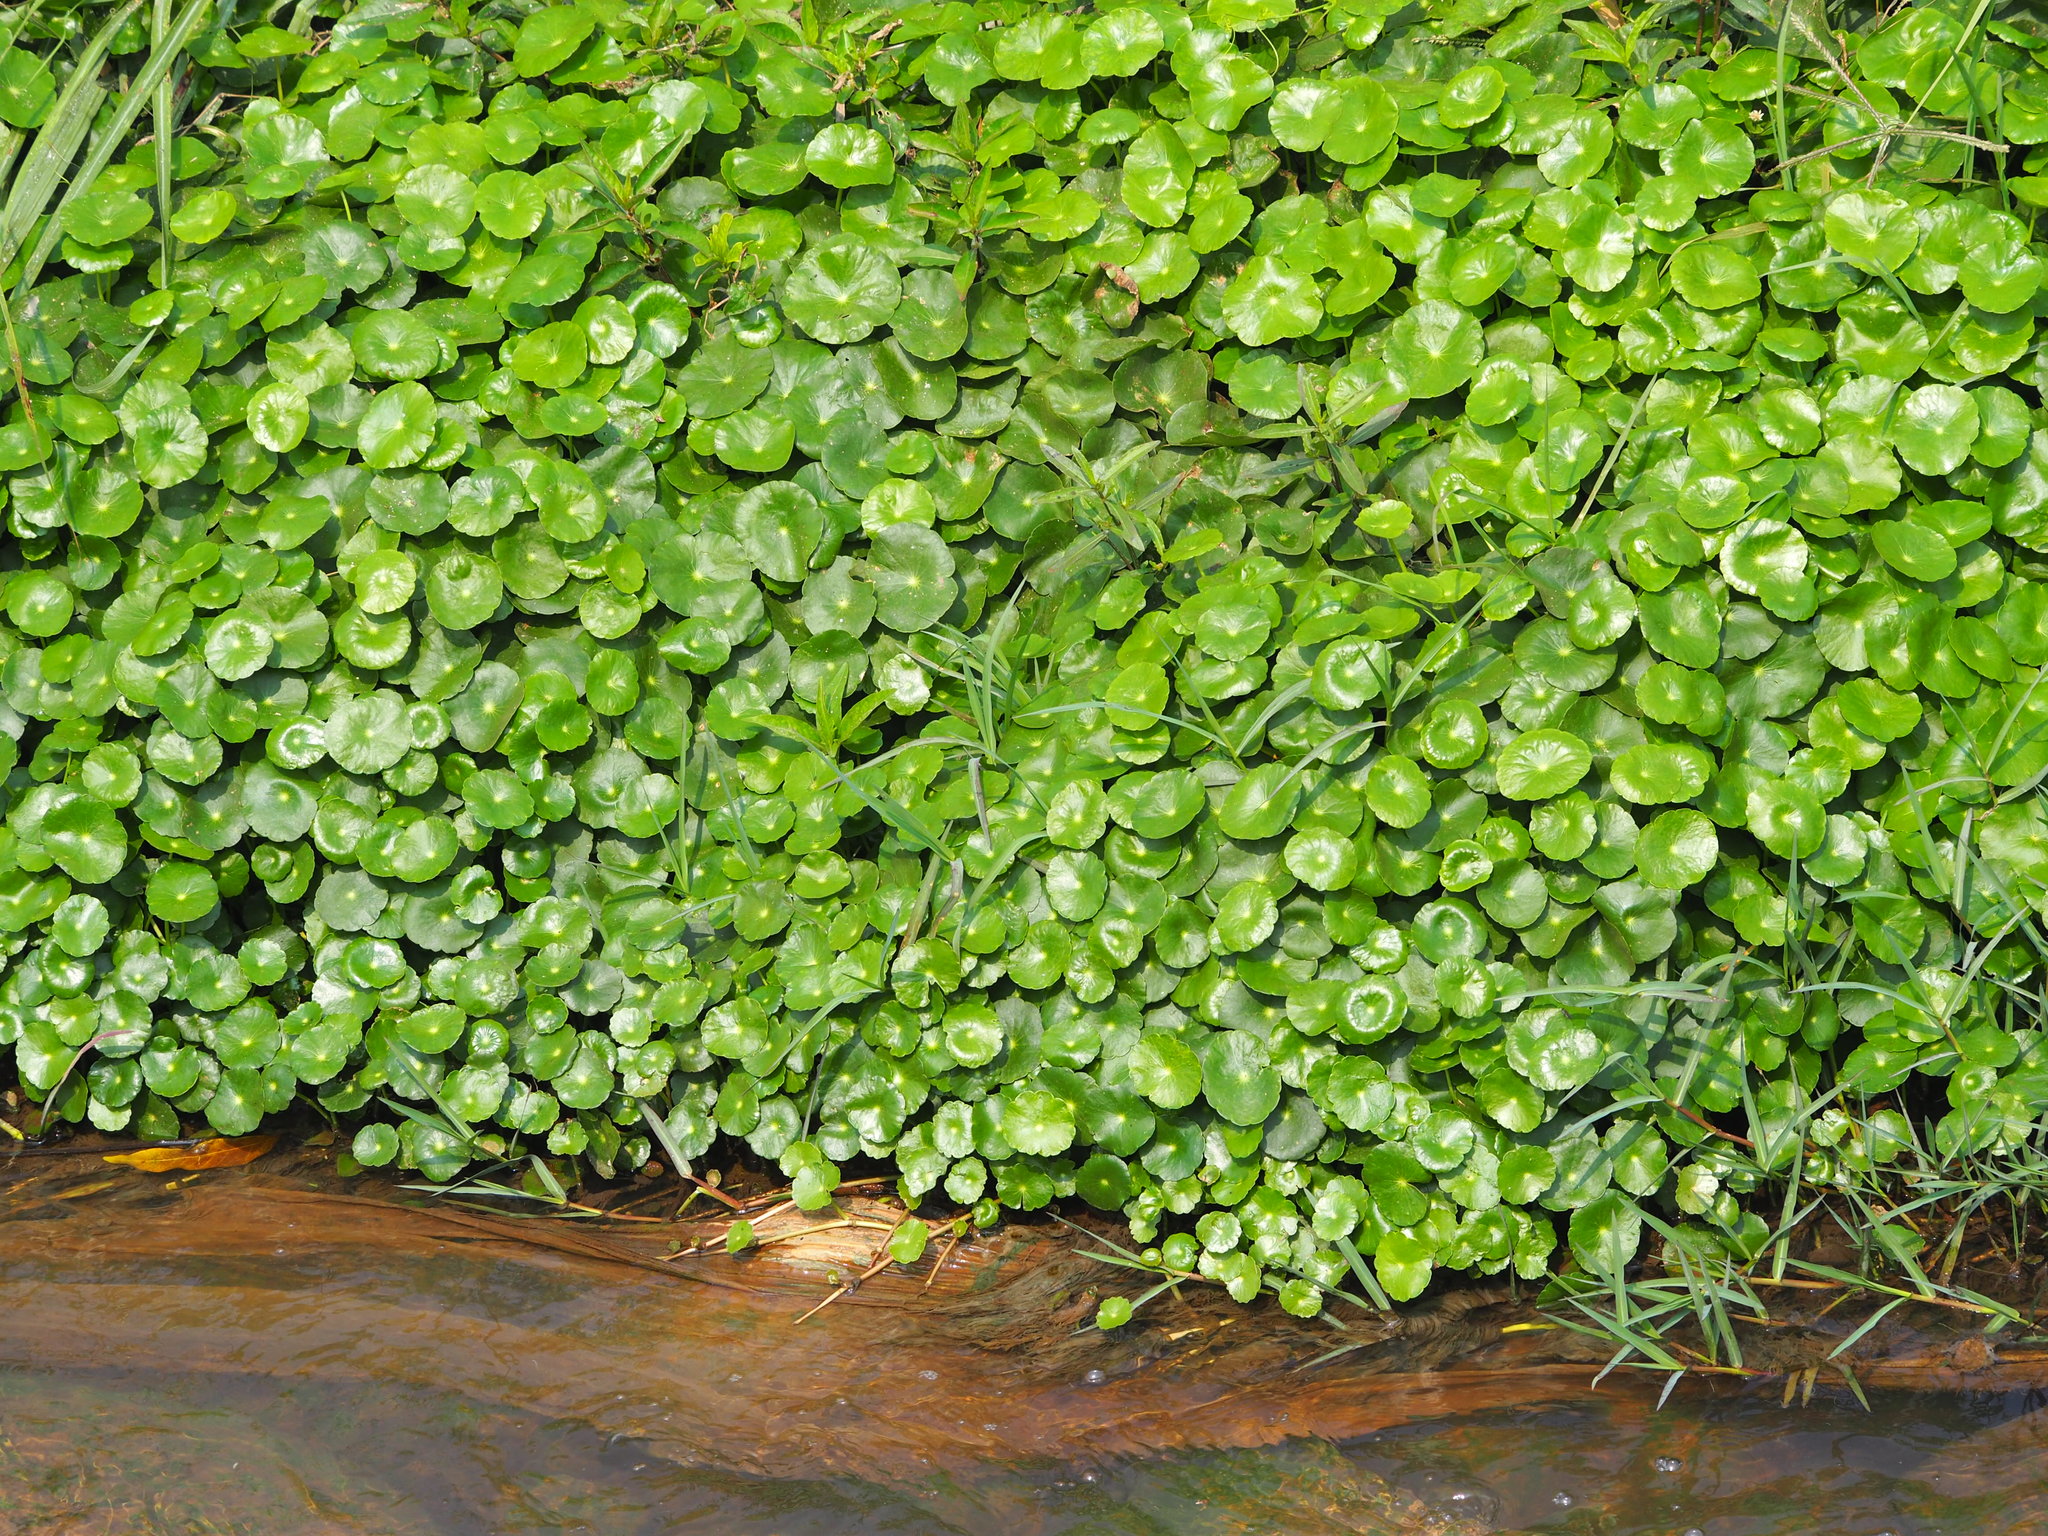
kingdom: Plantae
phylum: Tracheophyta
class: Magnoliopsida
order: Apiales
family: Araliaceae
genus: Hydrocotyle
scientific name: Hydrocotyle verticillata
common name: Whorled marshpennywort
